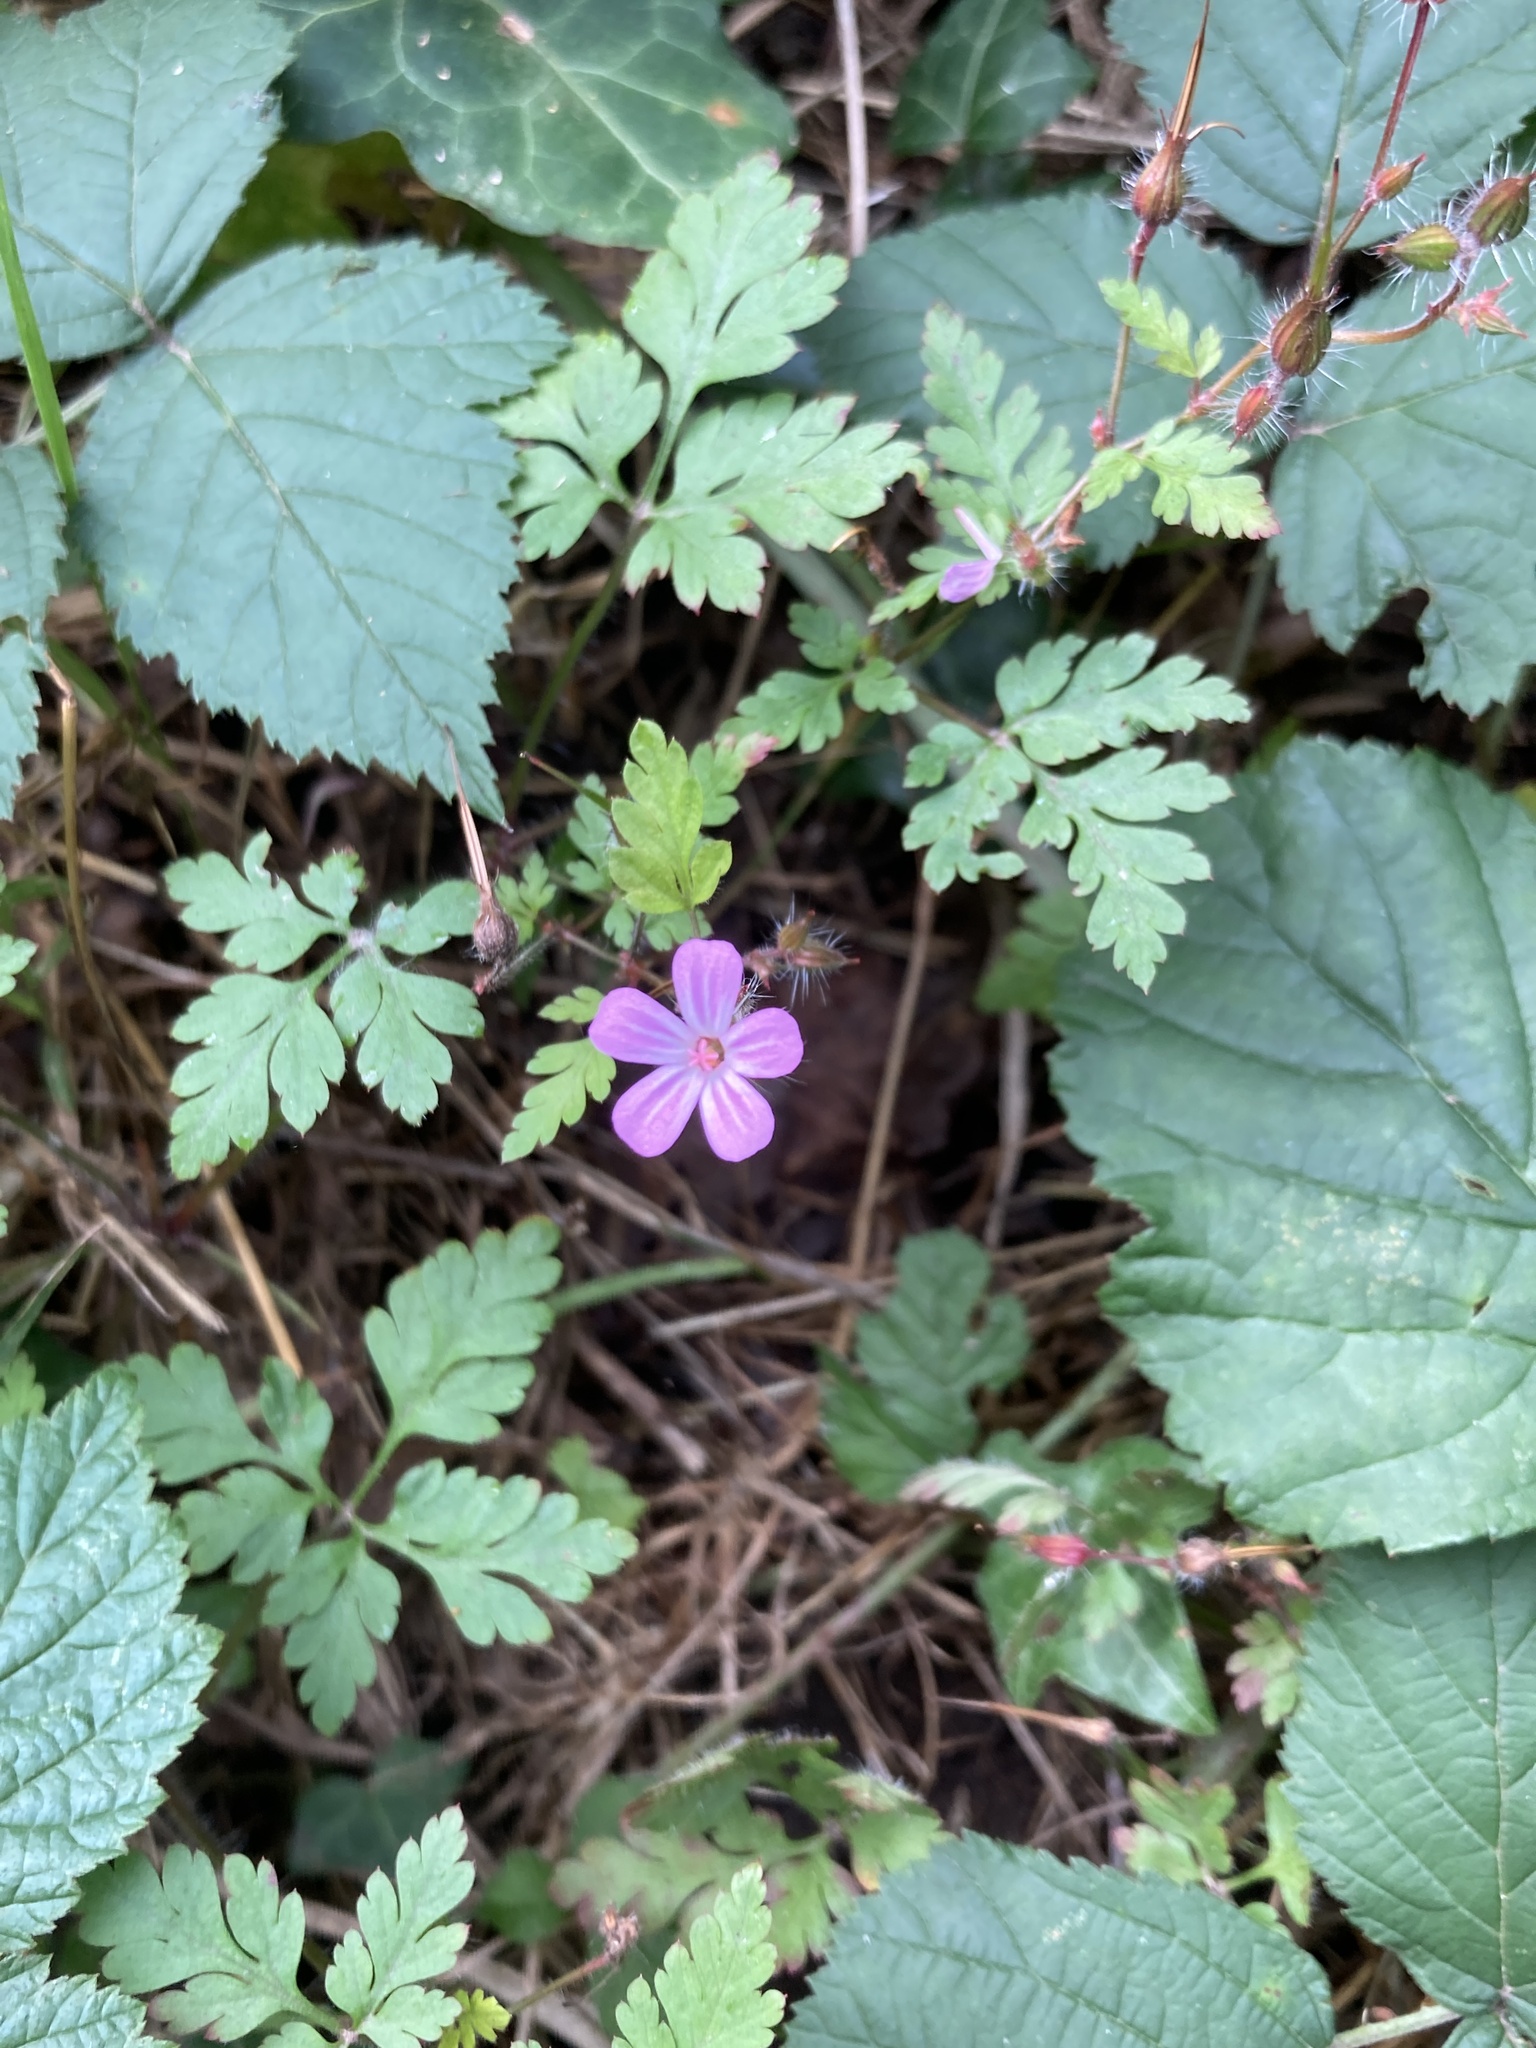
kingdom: Plantae
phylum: Tracheophyta
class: Magnoliopsida
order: Geraniales
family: Geraniaceae
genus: Geranium
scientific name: Geranium robertianum
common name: Herb-robert
